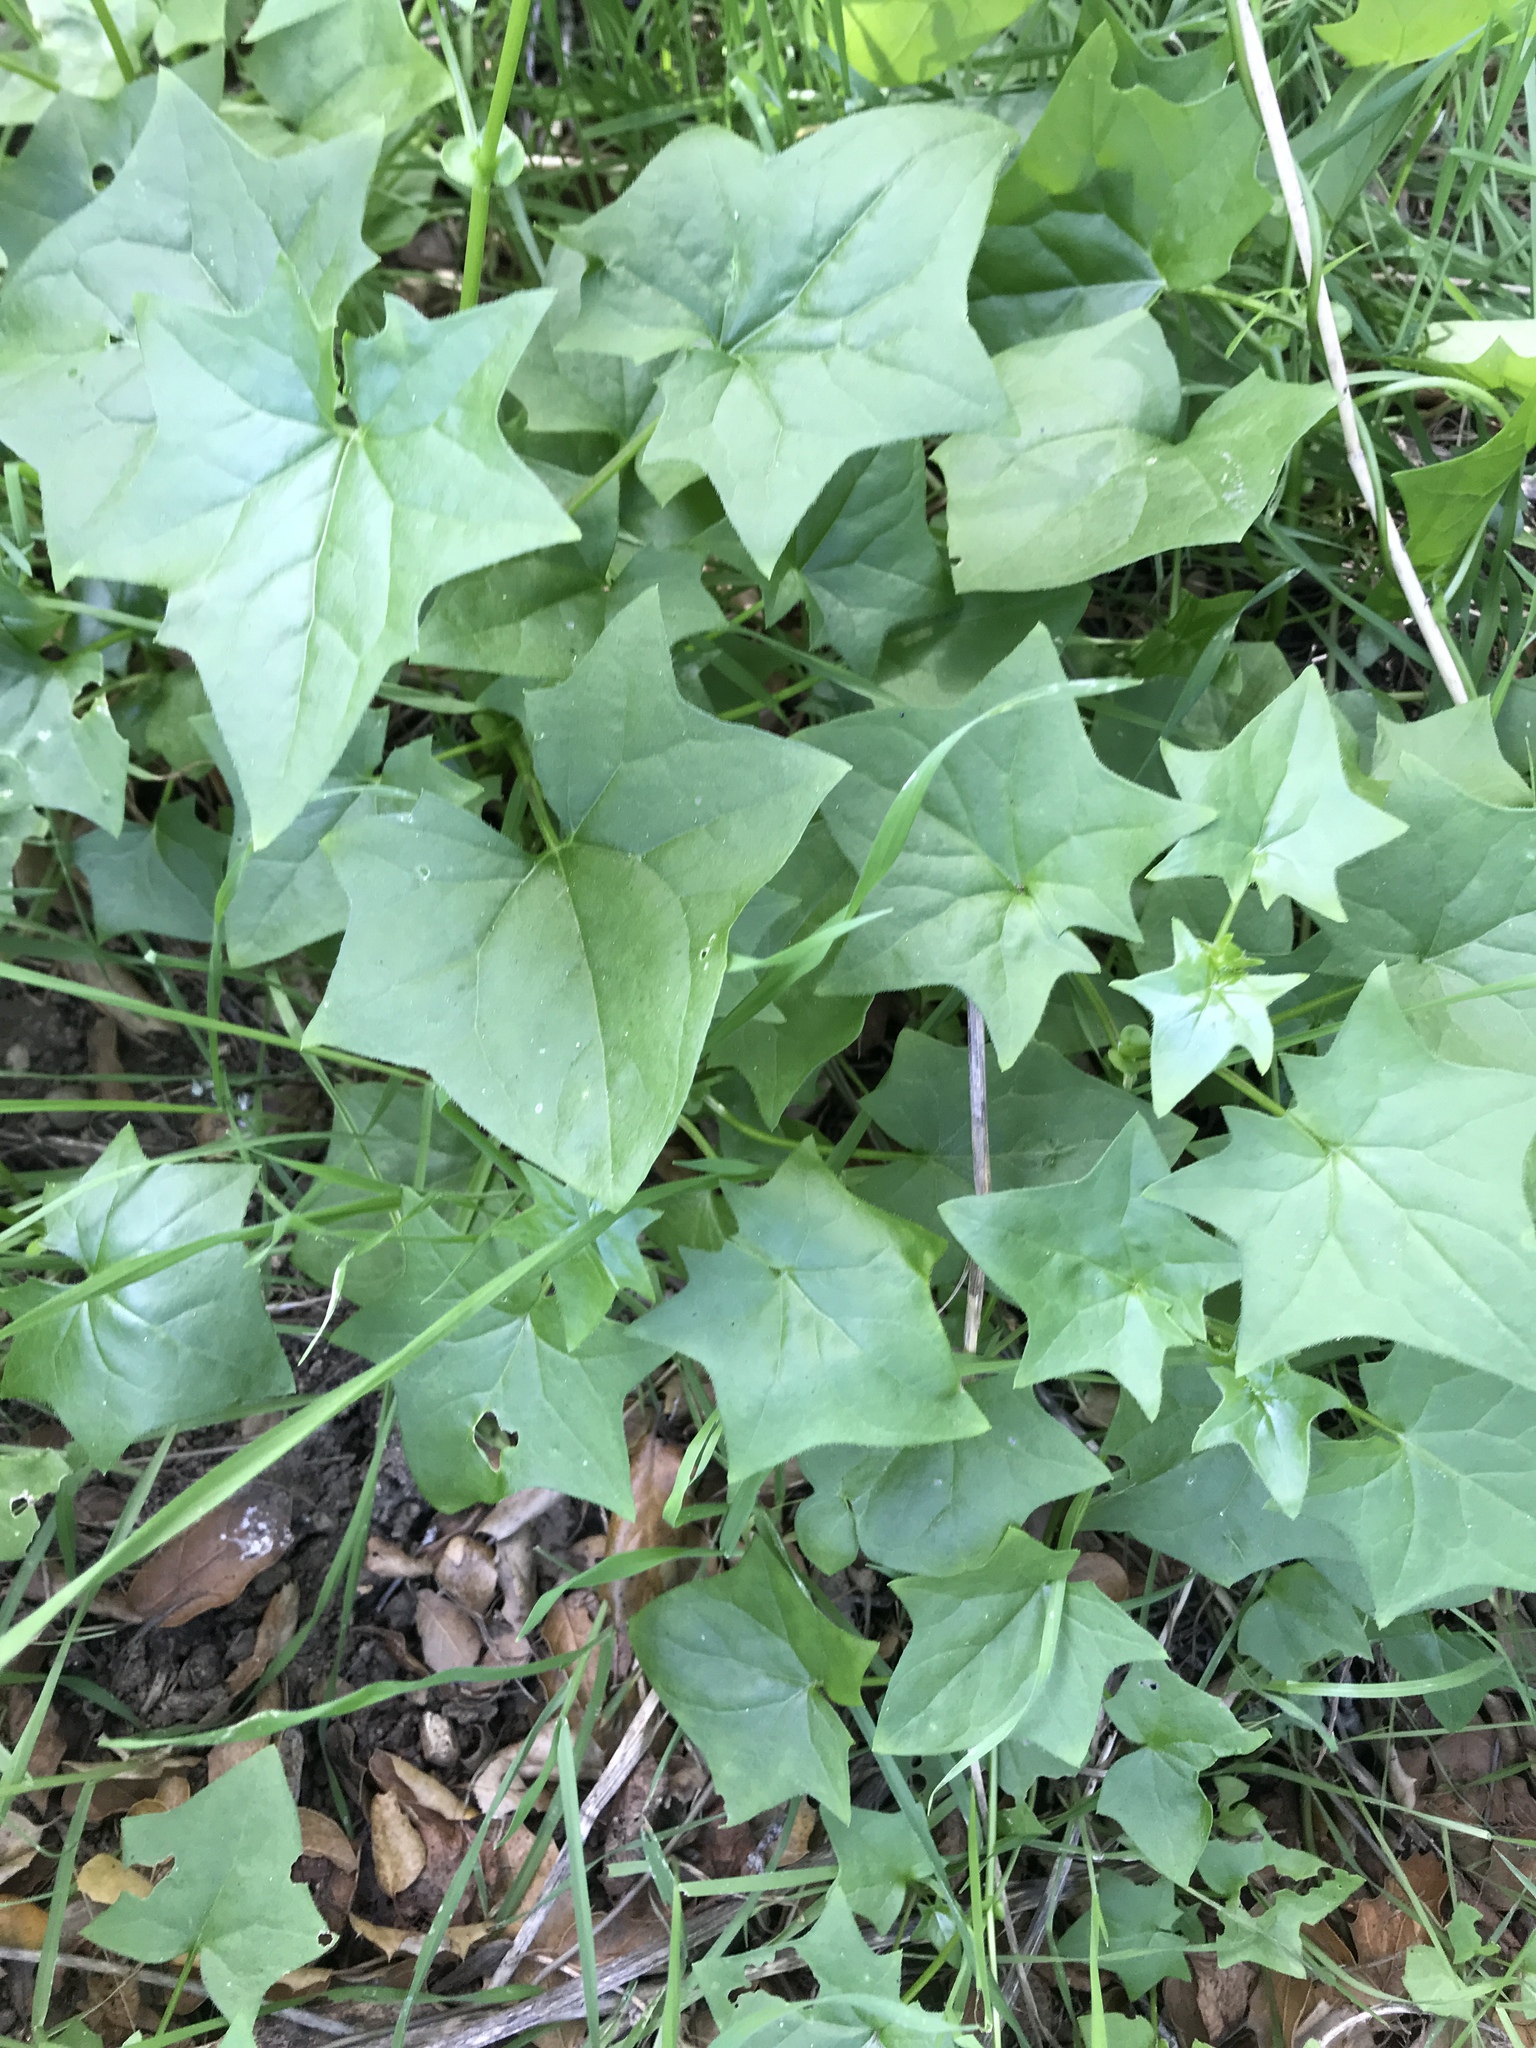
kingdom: Plantae
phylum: Tracheophyta
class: Magnoliopsida
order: Asterales
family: Asteraceae
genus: Delairea
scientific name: Delairea odorata
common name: Cape-ivy
